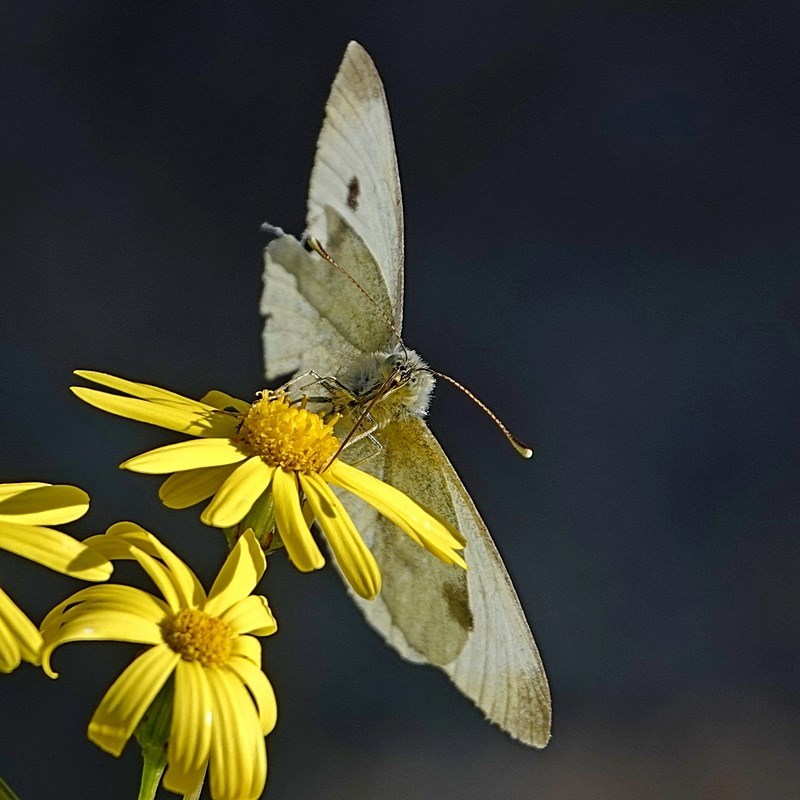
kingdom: Animalia
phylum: Arthropoda
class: Insecta
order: Lepidoptera
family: Pieridae
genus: Pieris
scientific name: Pieris rapae
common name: Small white
